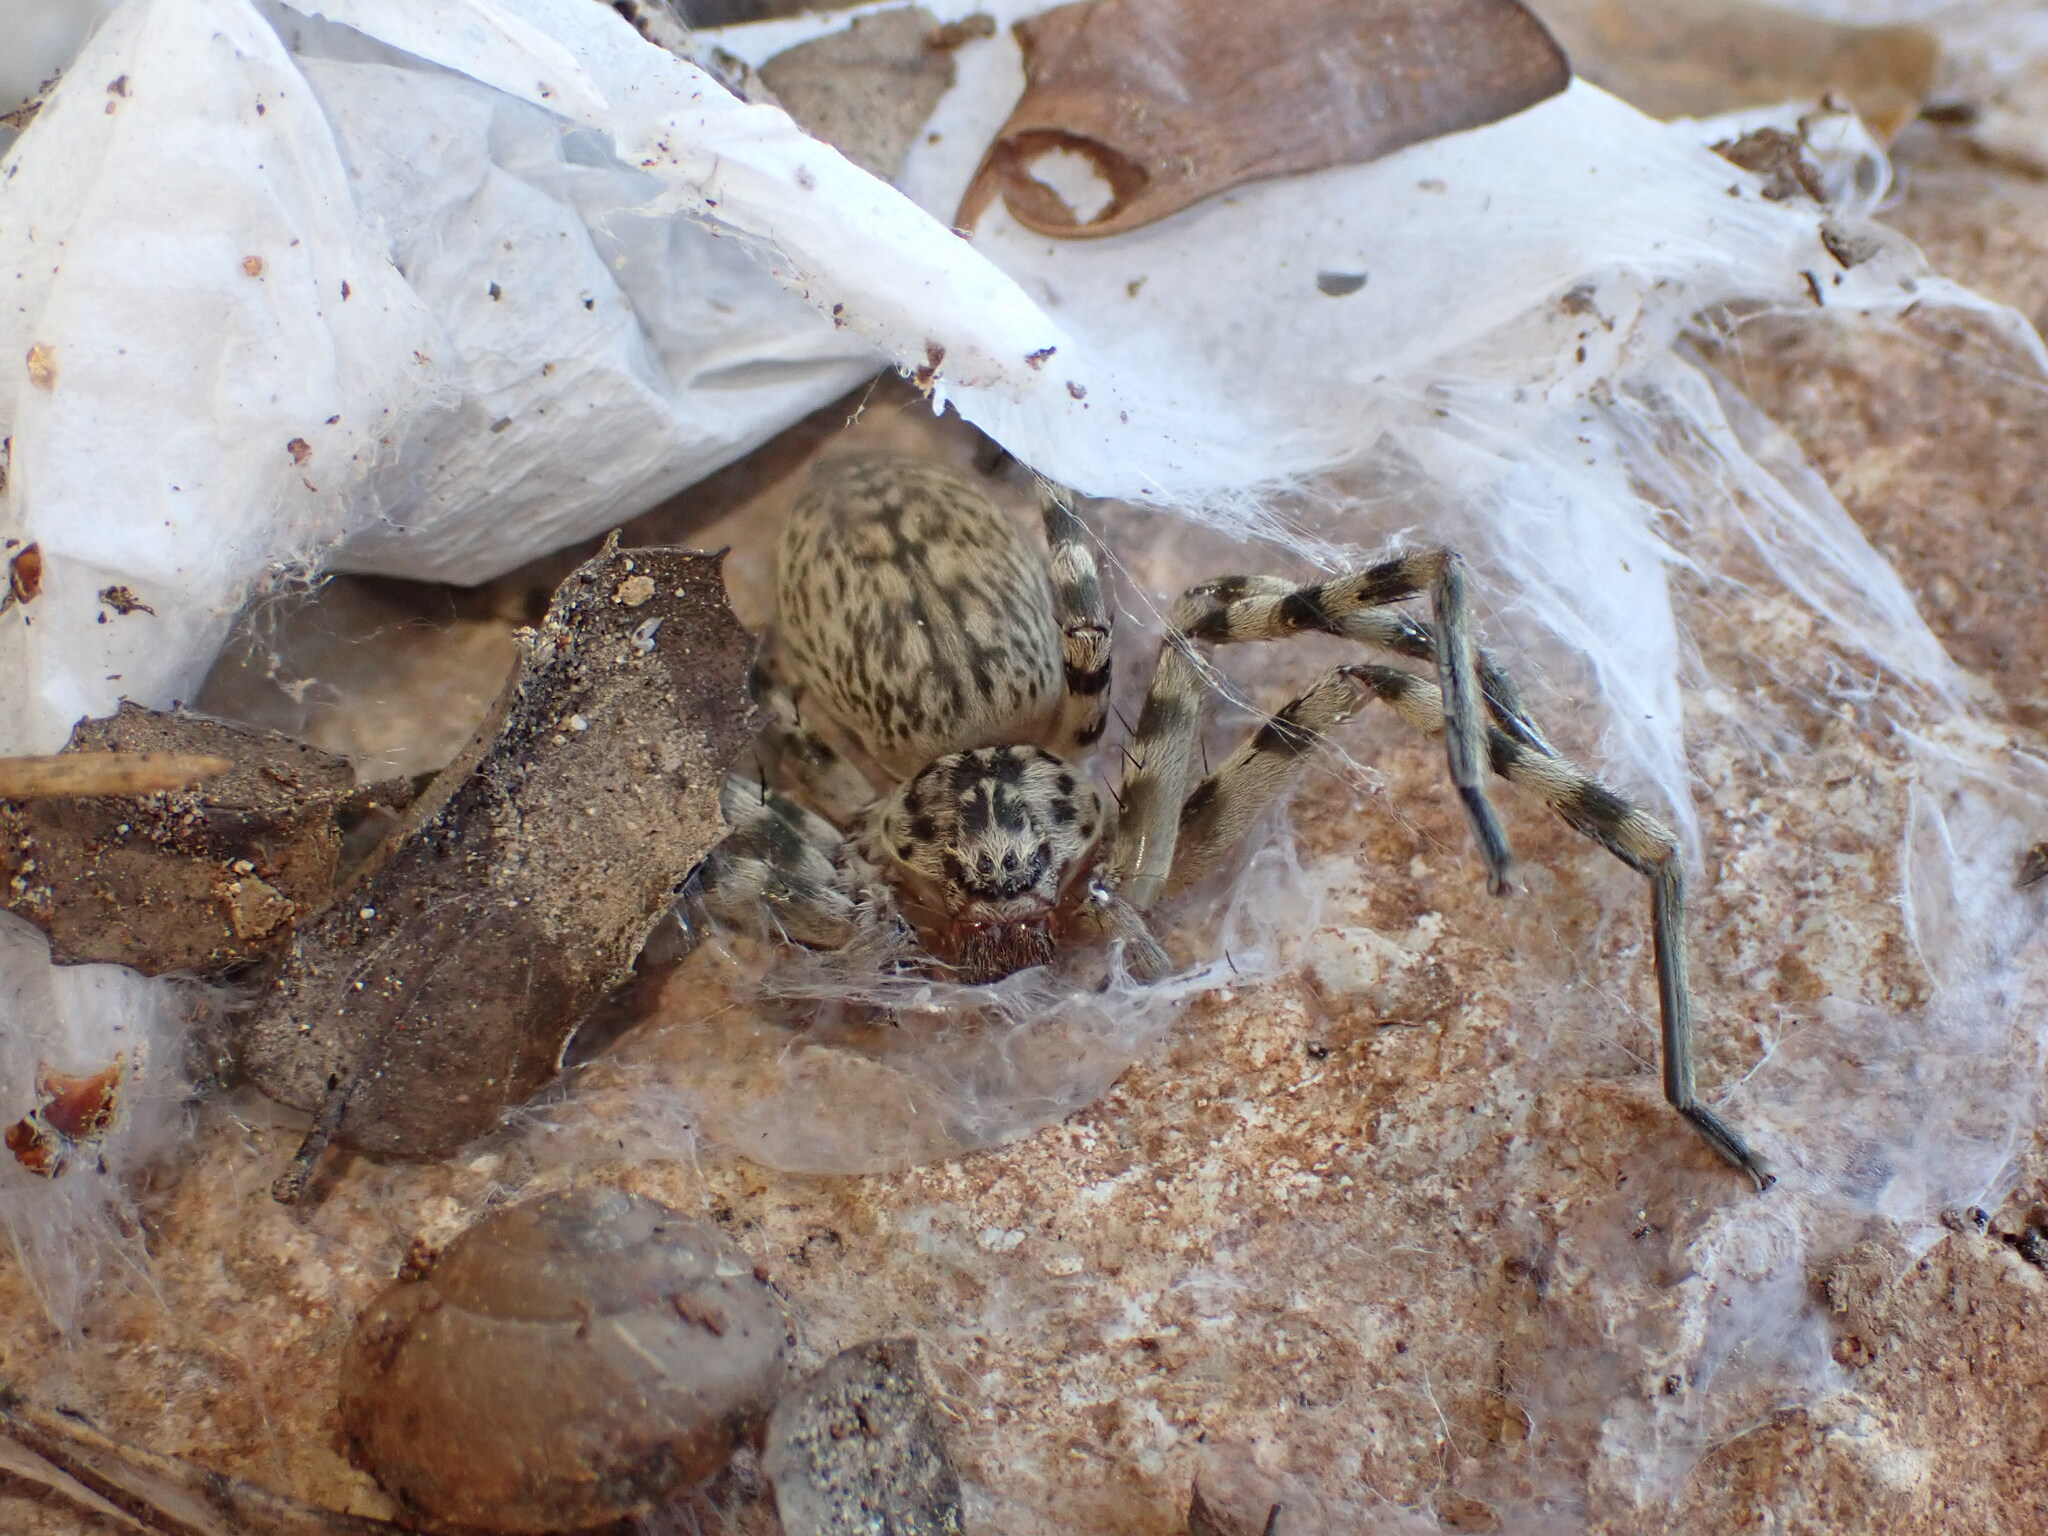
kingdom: Animalia
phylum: Arthropoda
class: Arachnida
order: Araneae
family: Sparassidae
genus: Eusparassus
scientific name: Eusparassus walckenaeri
